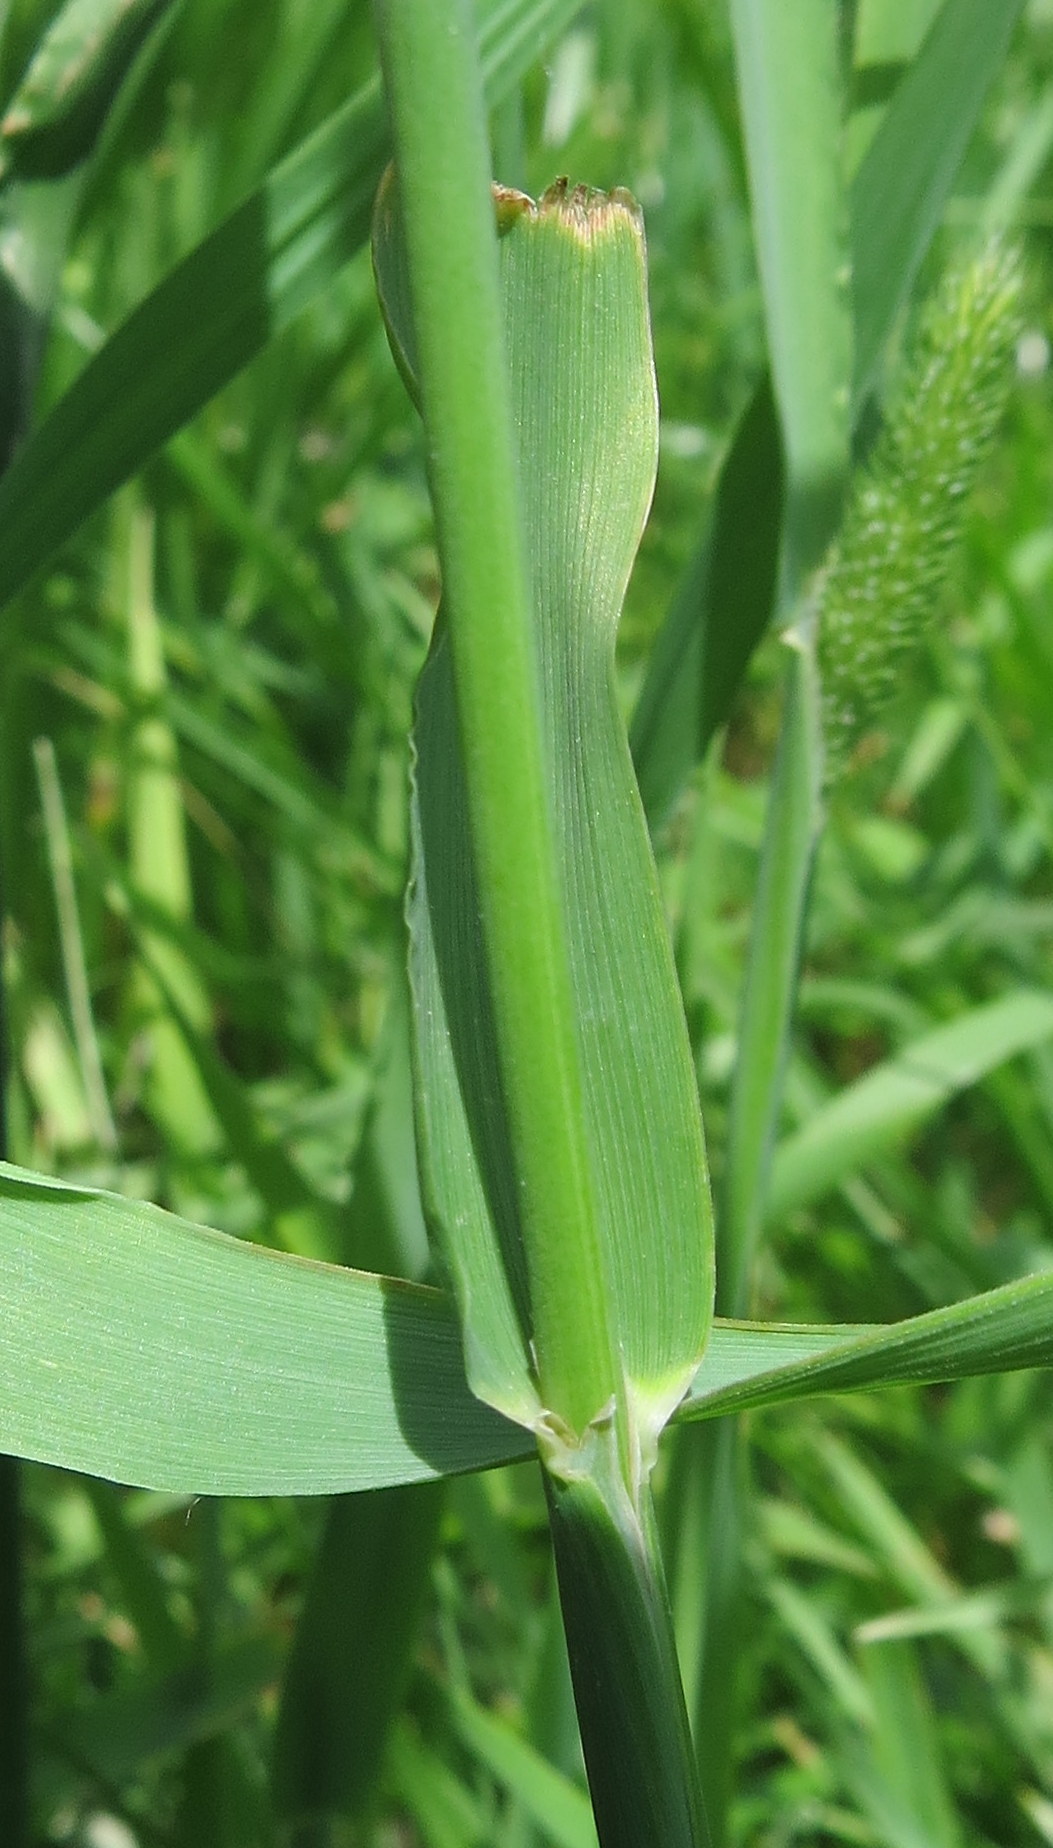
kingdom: Plantae
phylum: Tracheophyta
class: Liliopsida
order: Poales
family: Poaceae
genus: Phleum
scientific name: Phleum pratense
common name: Timothy grass
